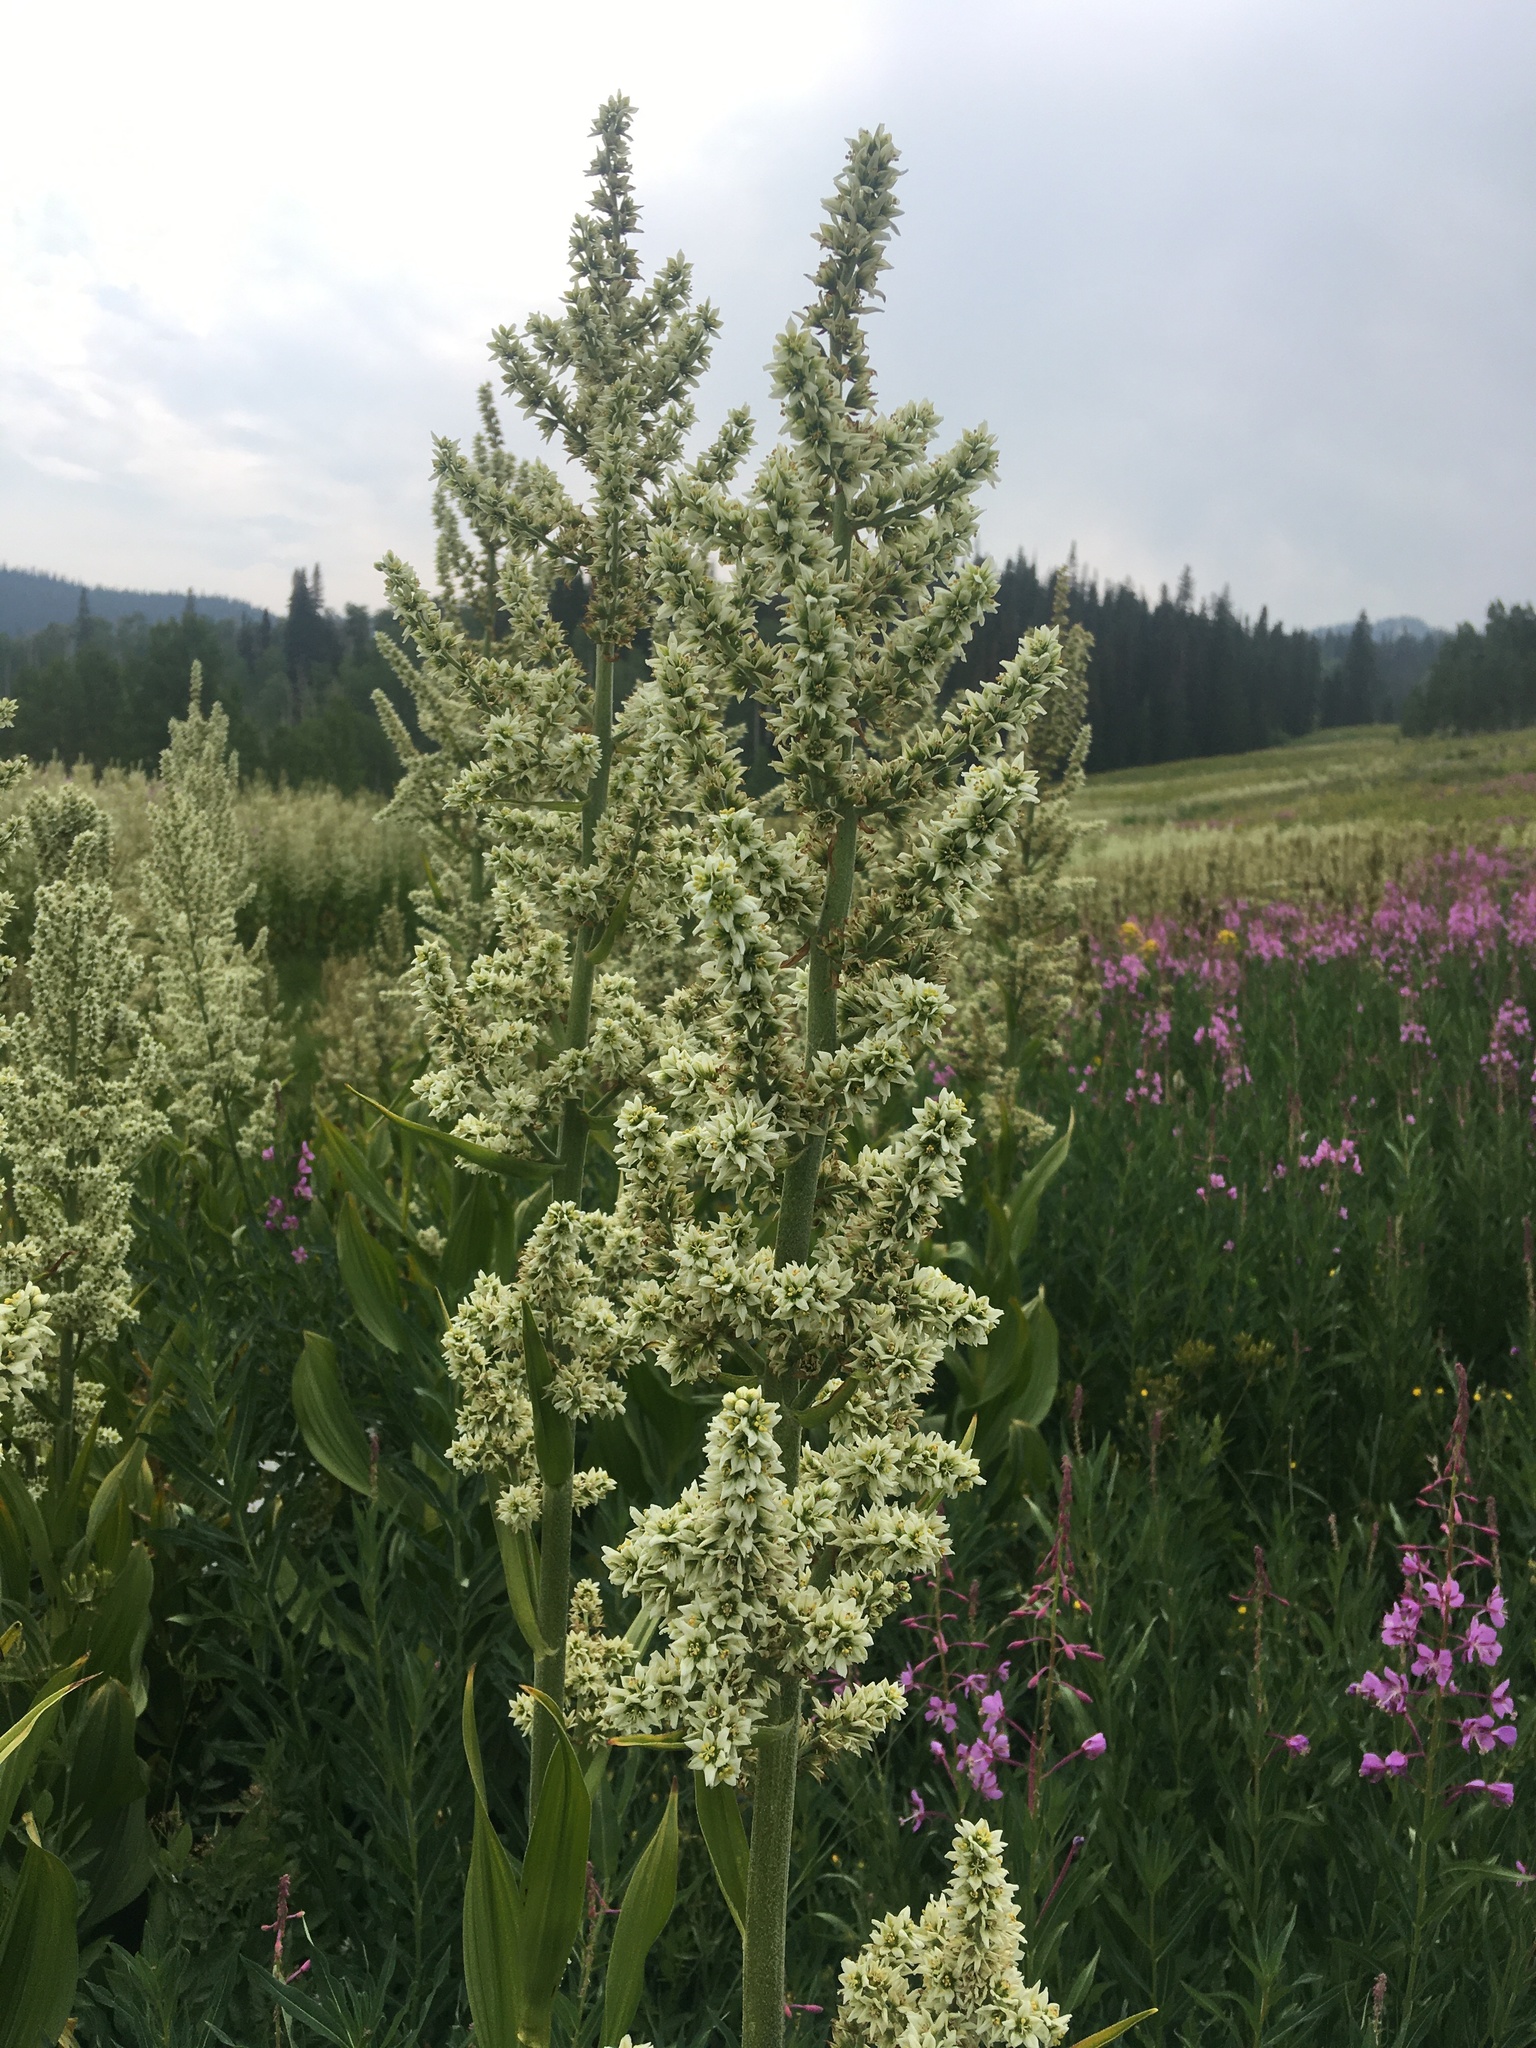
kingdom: Plantae
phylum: Tracheophyta
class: Liliopsida
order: Liliales
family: Melanthiaceae
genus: Veratrum
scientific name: Veratrum californicum
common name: California veratrum
